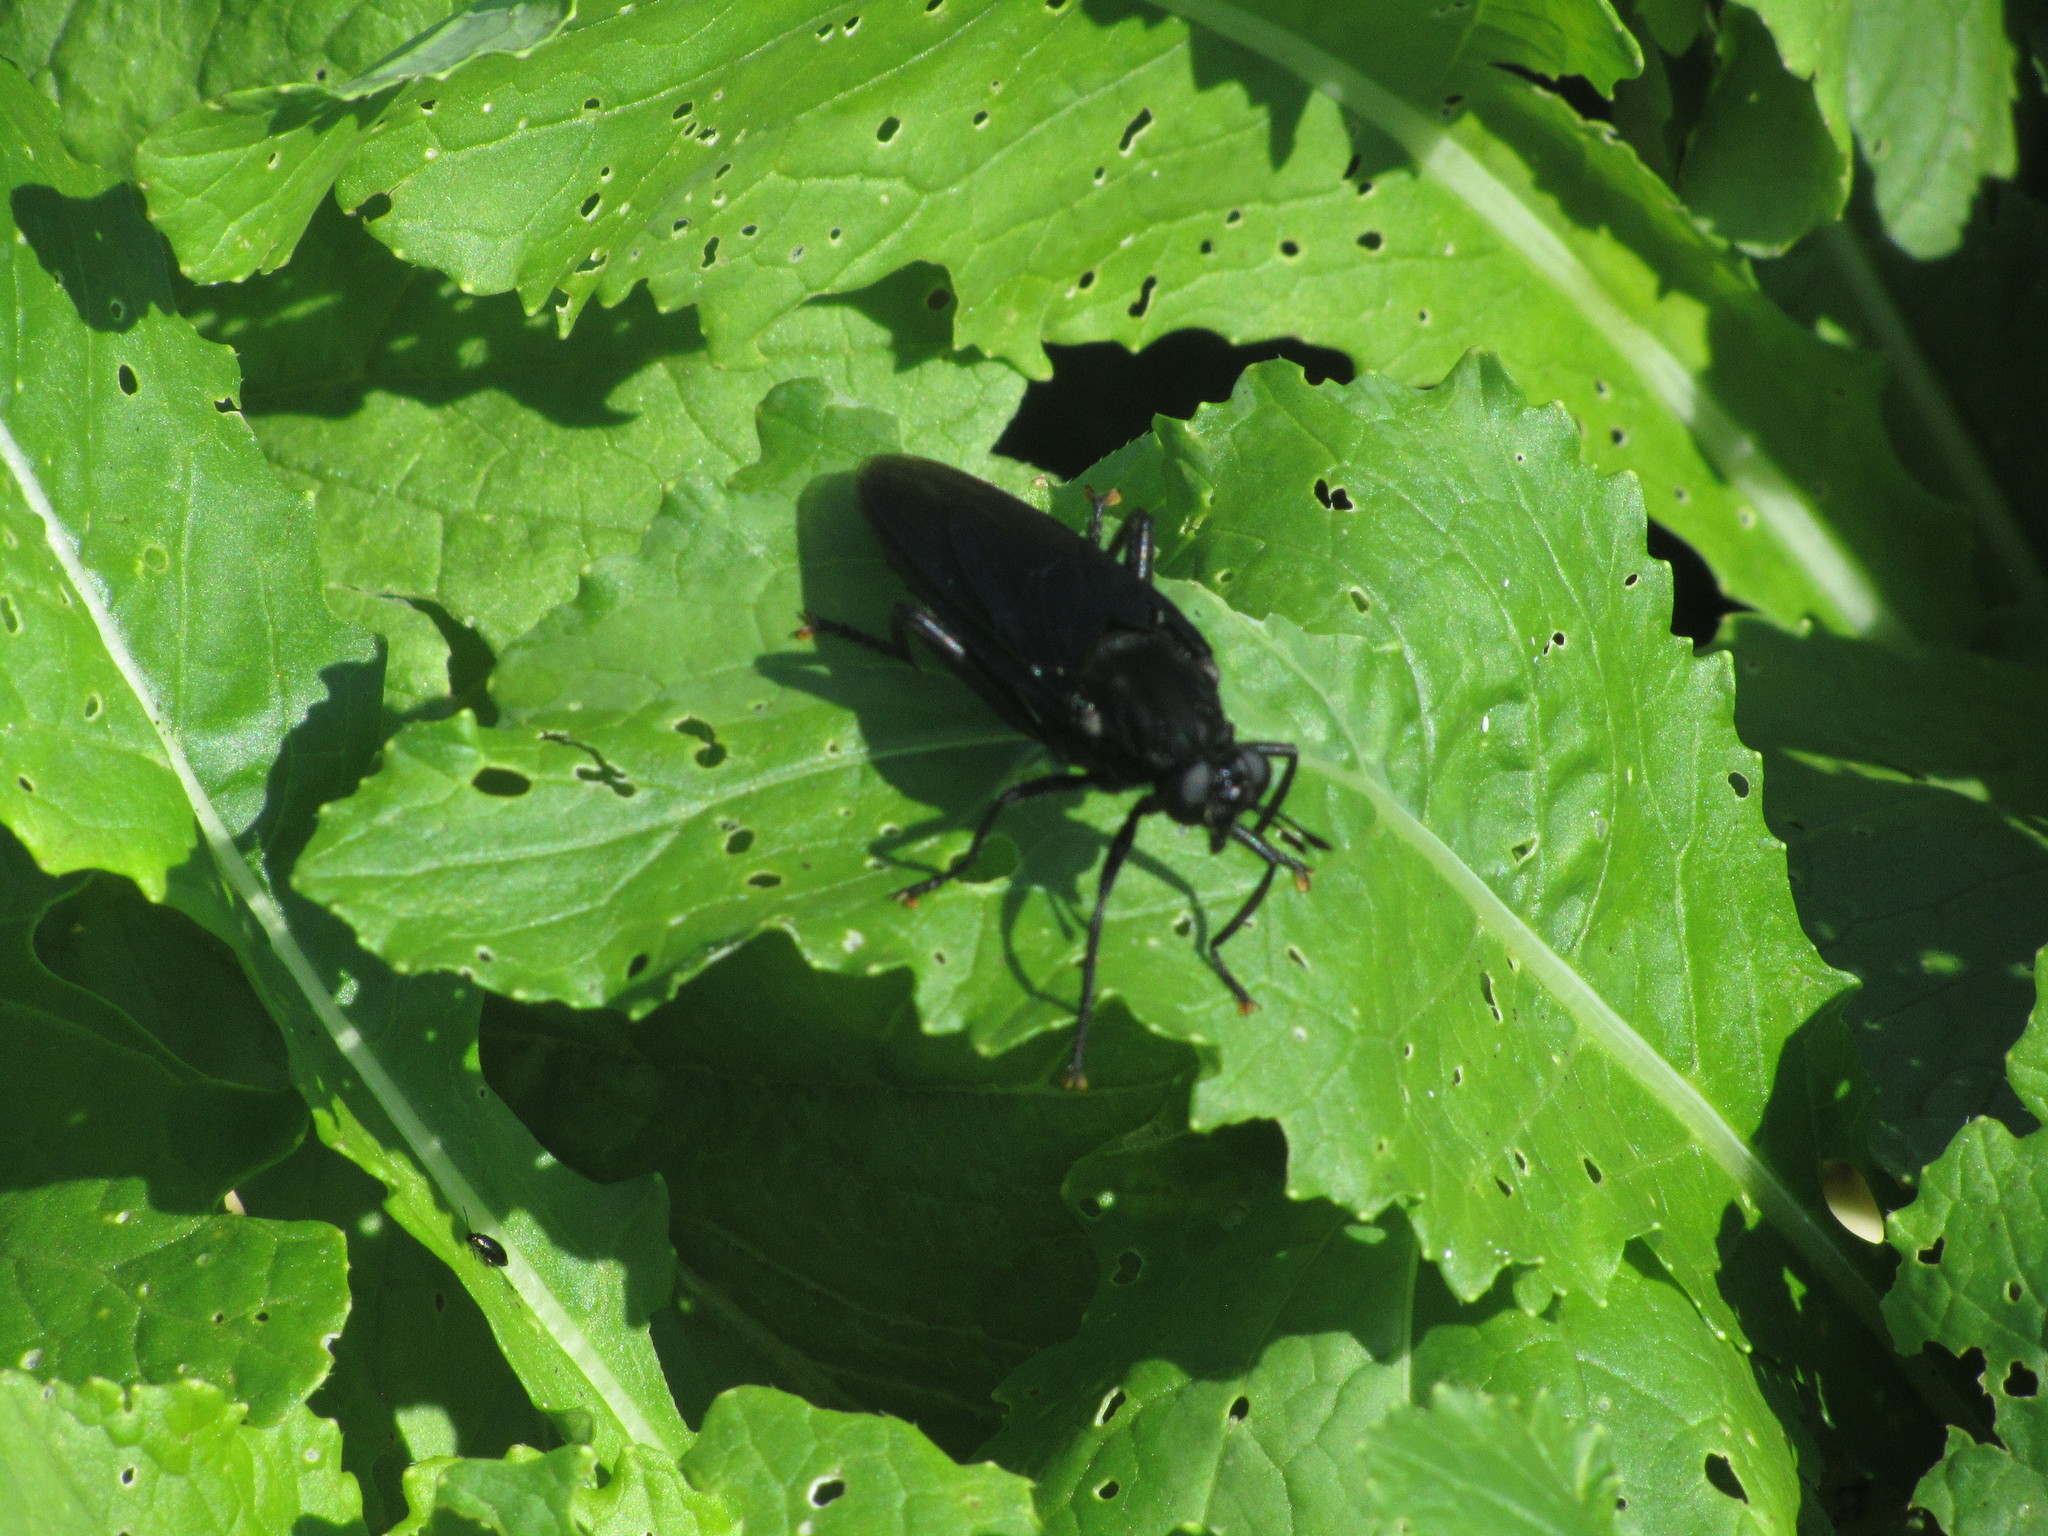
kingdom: Animalia
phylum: Arthropoda
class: Insecta
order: Diptera
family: Mydidae
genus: Mydas
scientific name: Mydas clavatus
